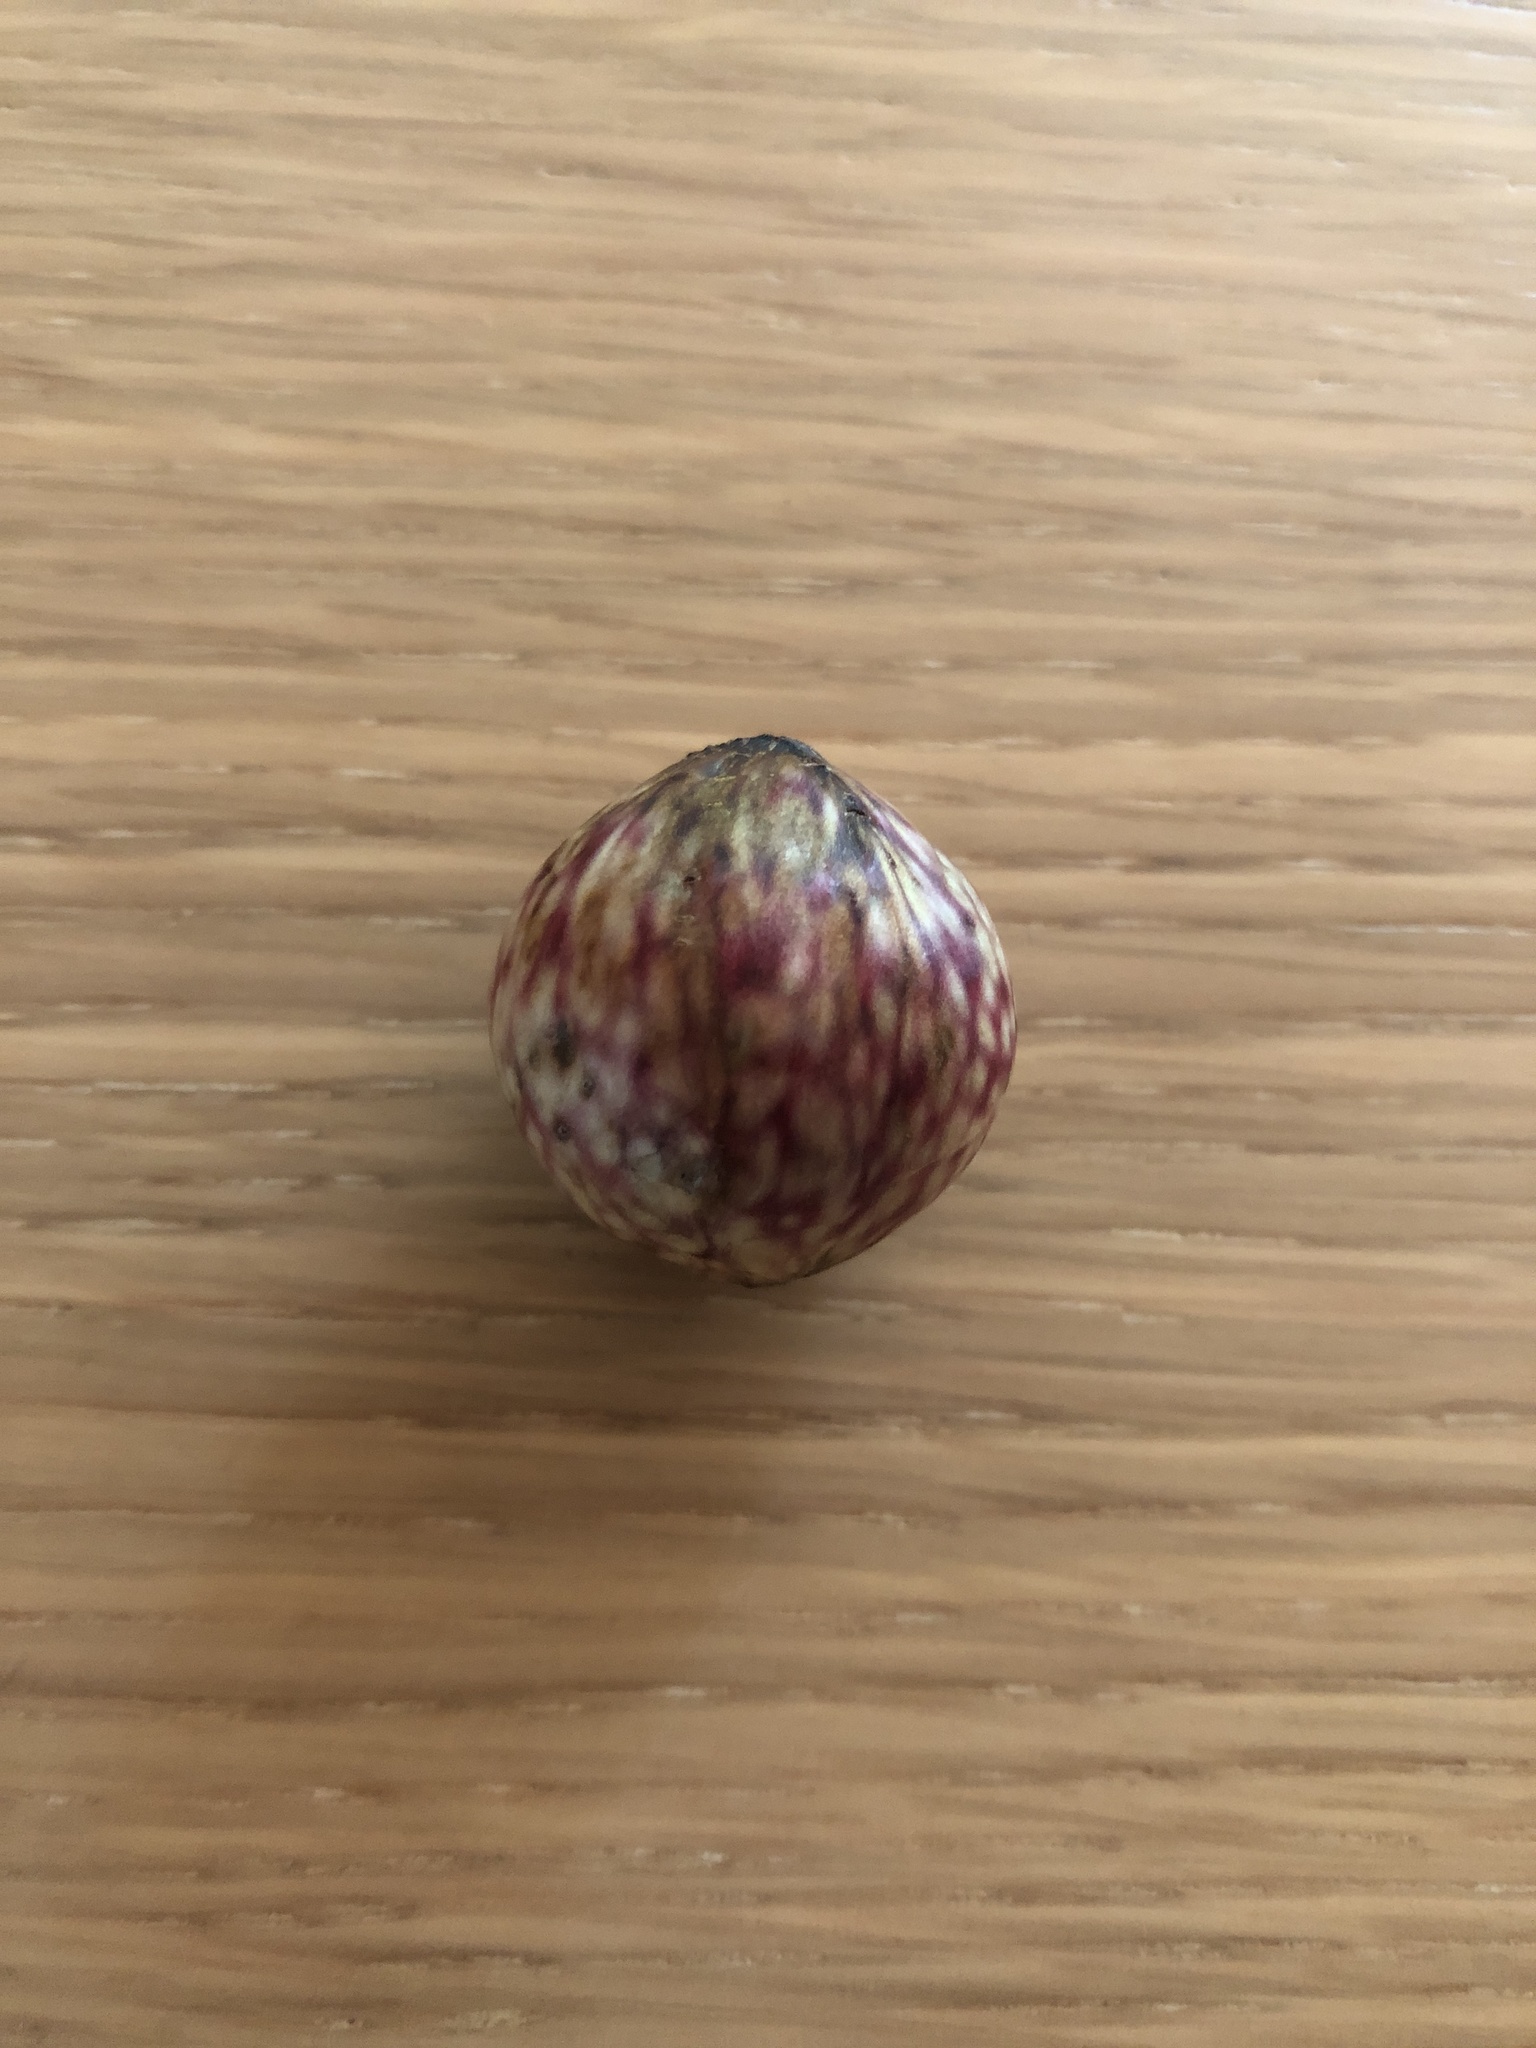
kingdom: Animalia
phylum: Arthropoda
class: Insecta
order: Hymenoptera
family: Cynipidae
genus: Amphibolips
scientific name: Amphibolips
